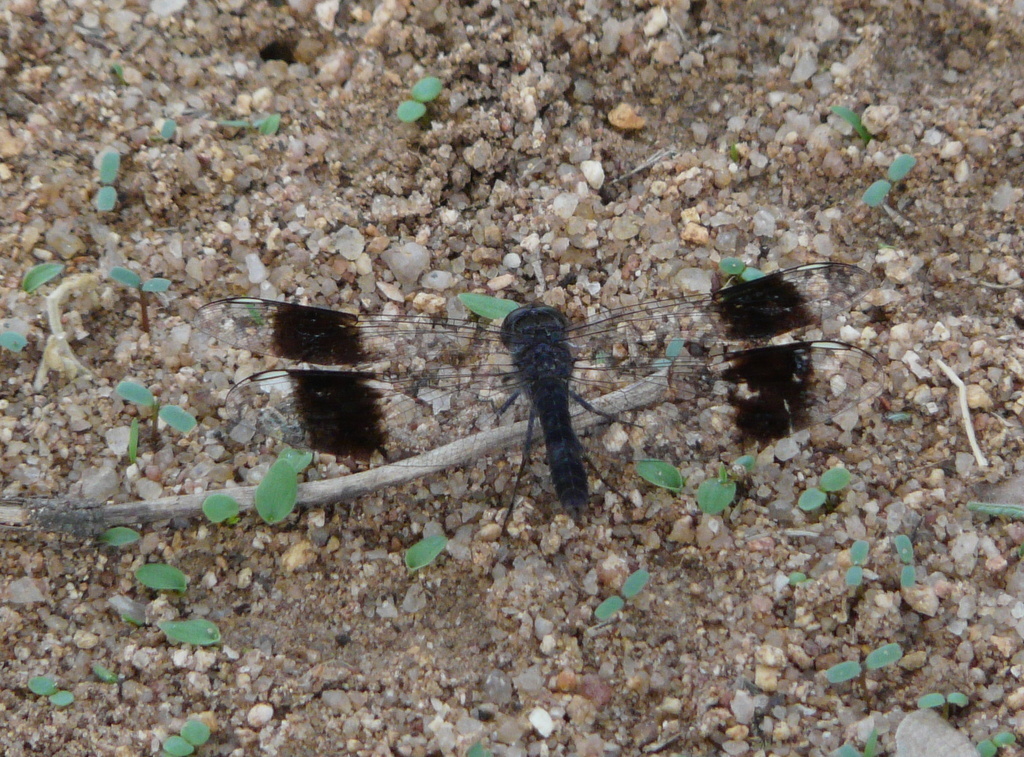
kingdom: Animalia
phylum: Arthropoda
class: Insecta
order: Odonata
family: Libellulidae
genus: Brachythemis
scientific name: Brachythemis leucosticta
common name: Banded groundling
